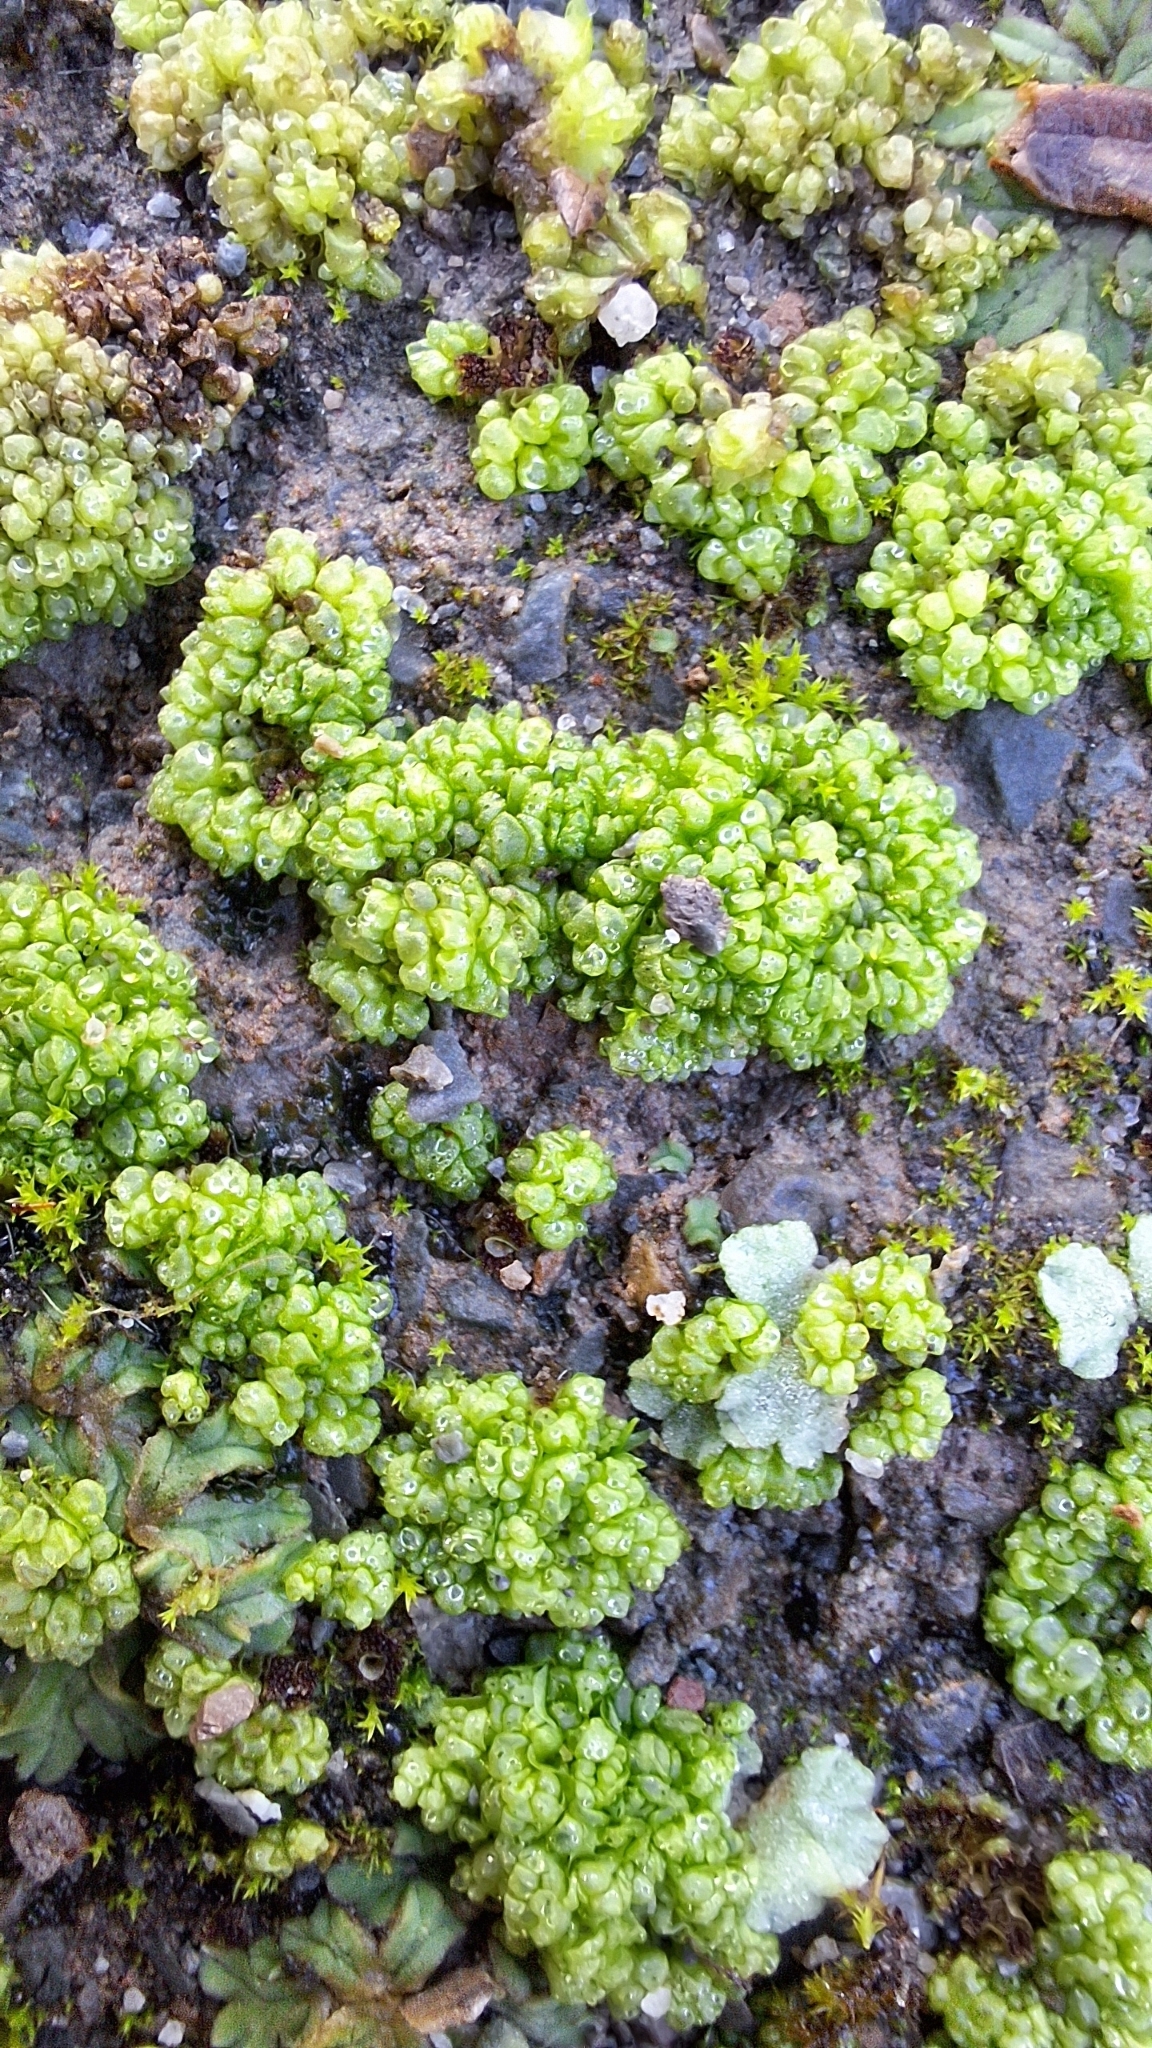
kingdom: Plantae
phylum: Marchantiophyta
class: Marchantiopsida
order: Sphaerocarpales
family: Sphaerocarpaceae
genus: Sphaerocarpos
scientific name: Sphaerocarpos texanus
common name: Texas balloonwort
